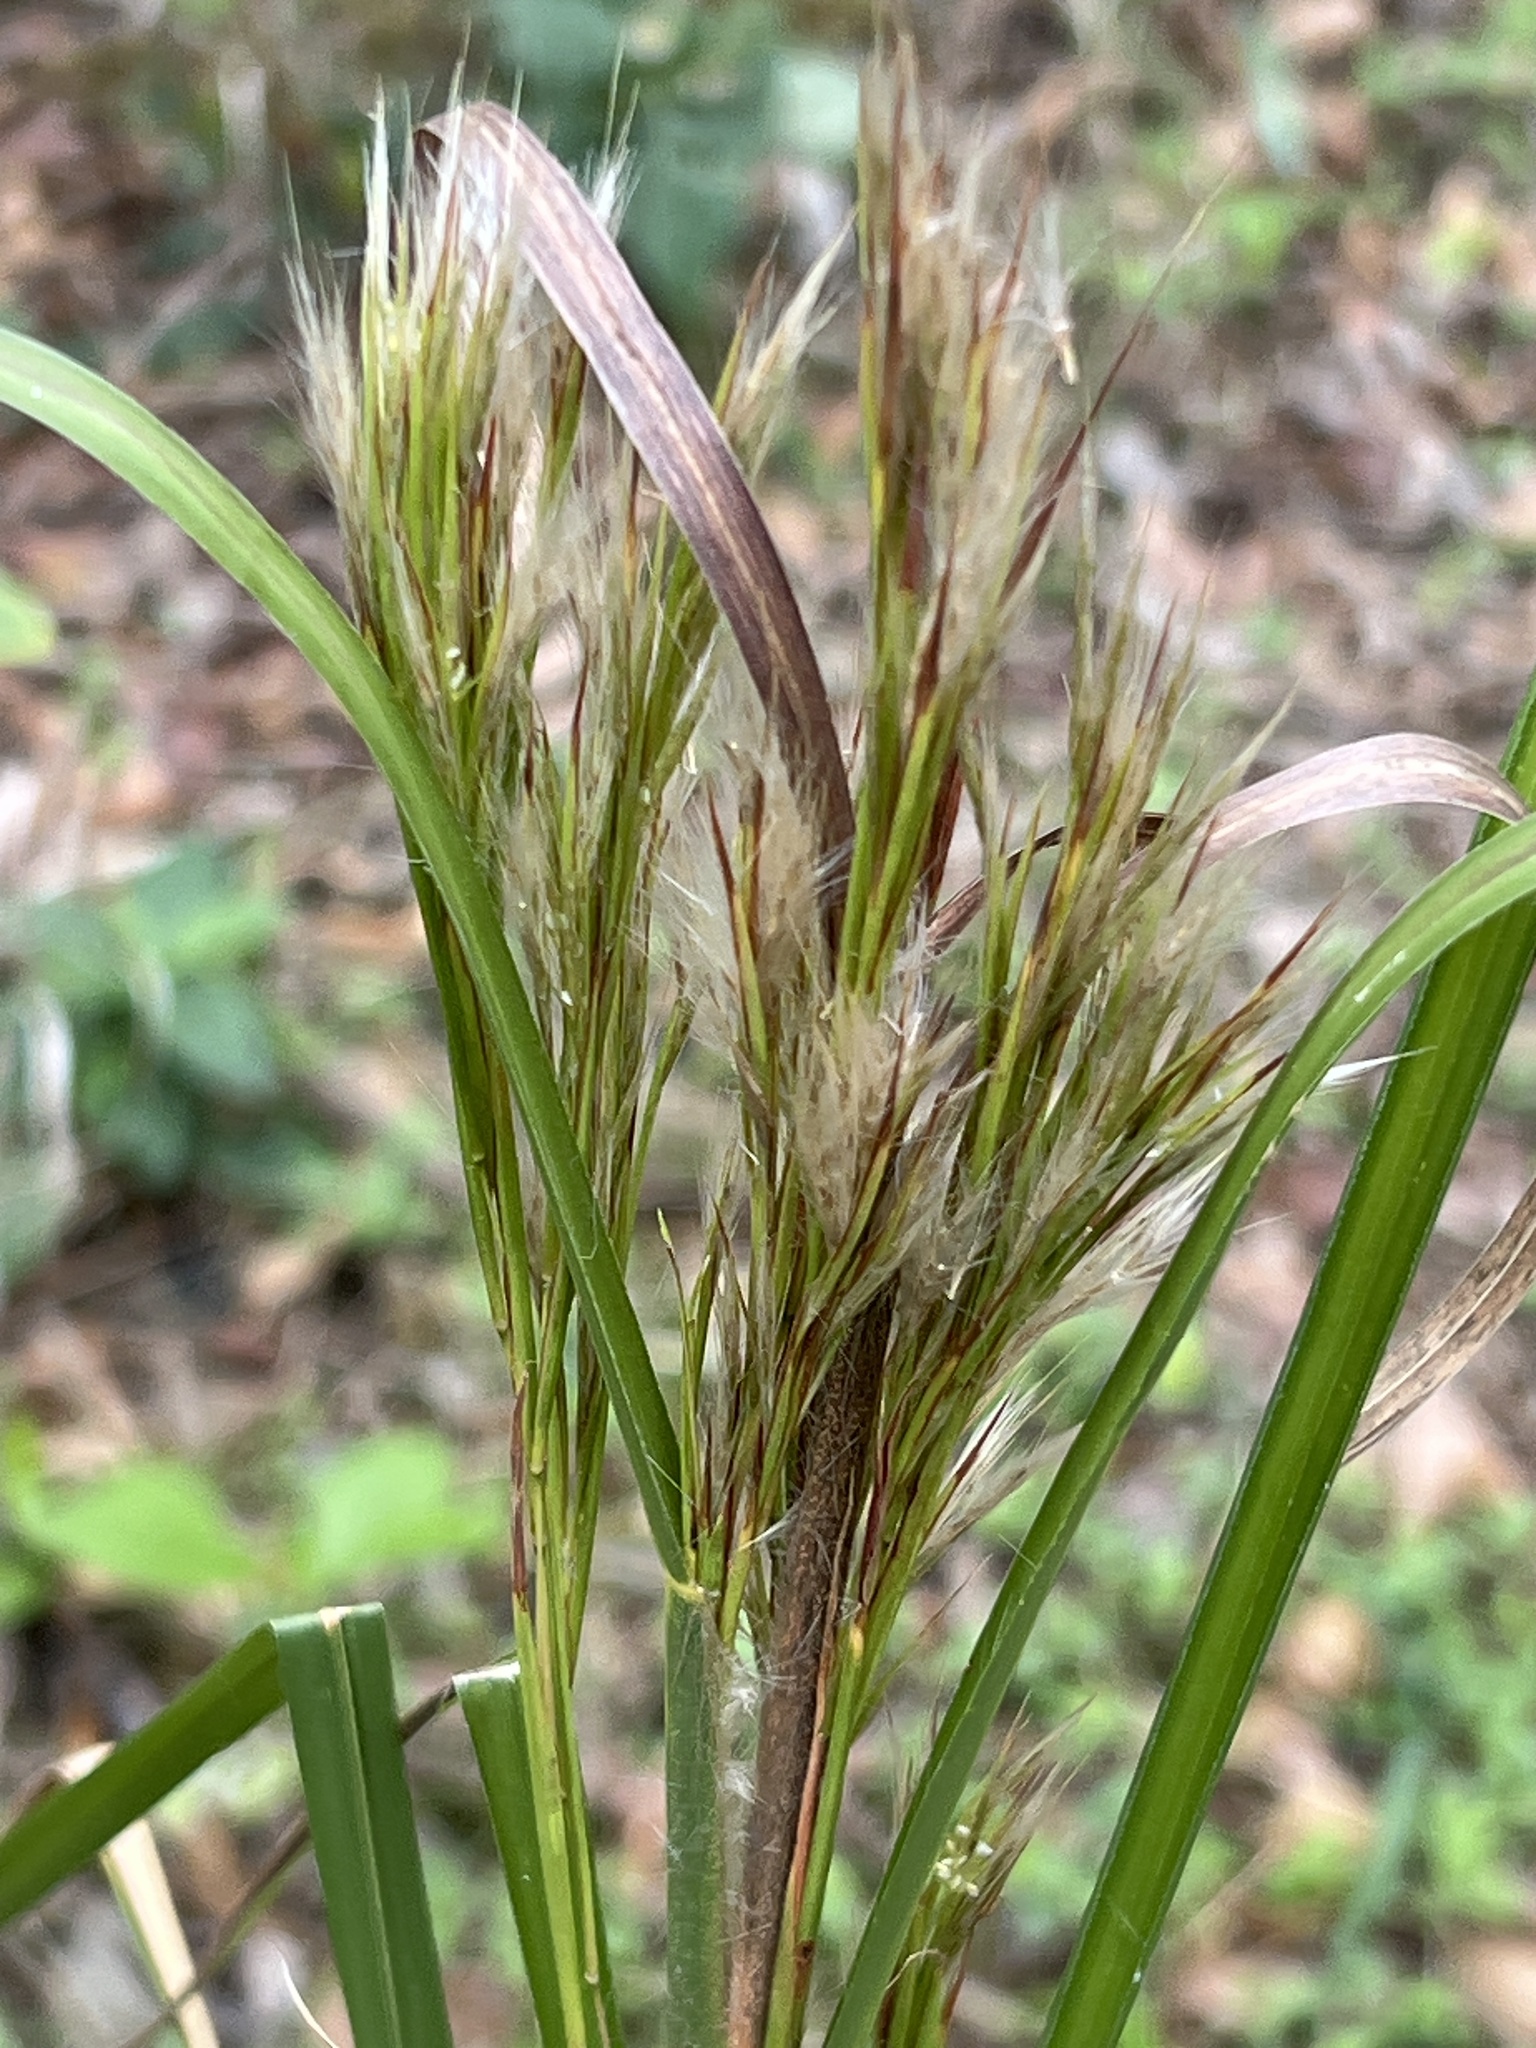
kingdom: Plantae
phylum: Tracheophyta
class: Liliopsida
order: Poales
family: Poaceae
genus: Andropogon
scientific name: Andropogon tenuispatheus
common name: Bushy bluestem
